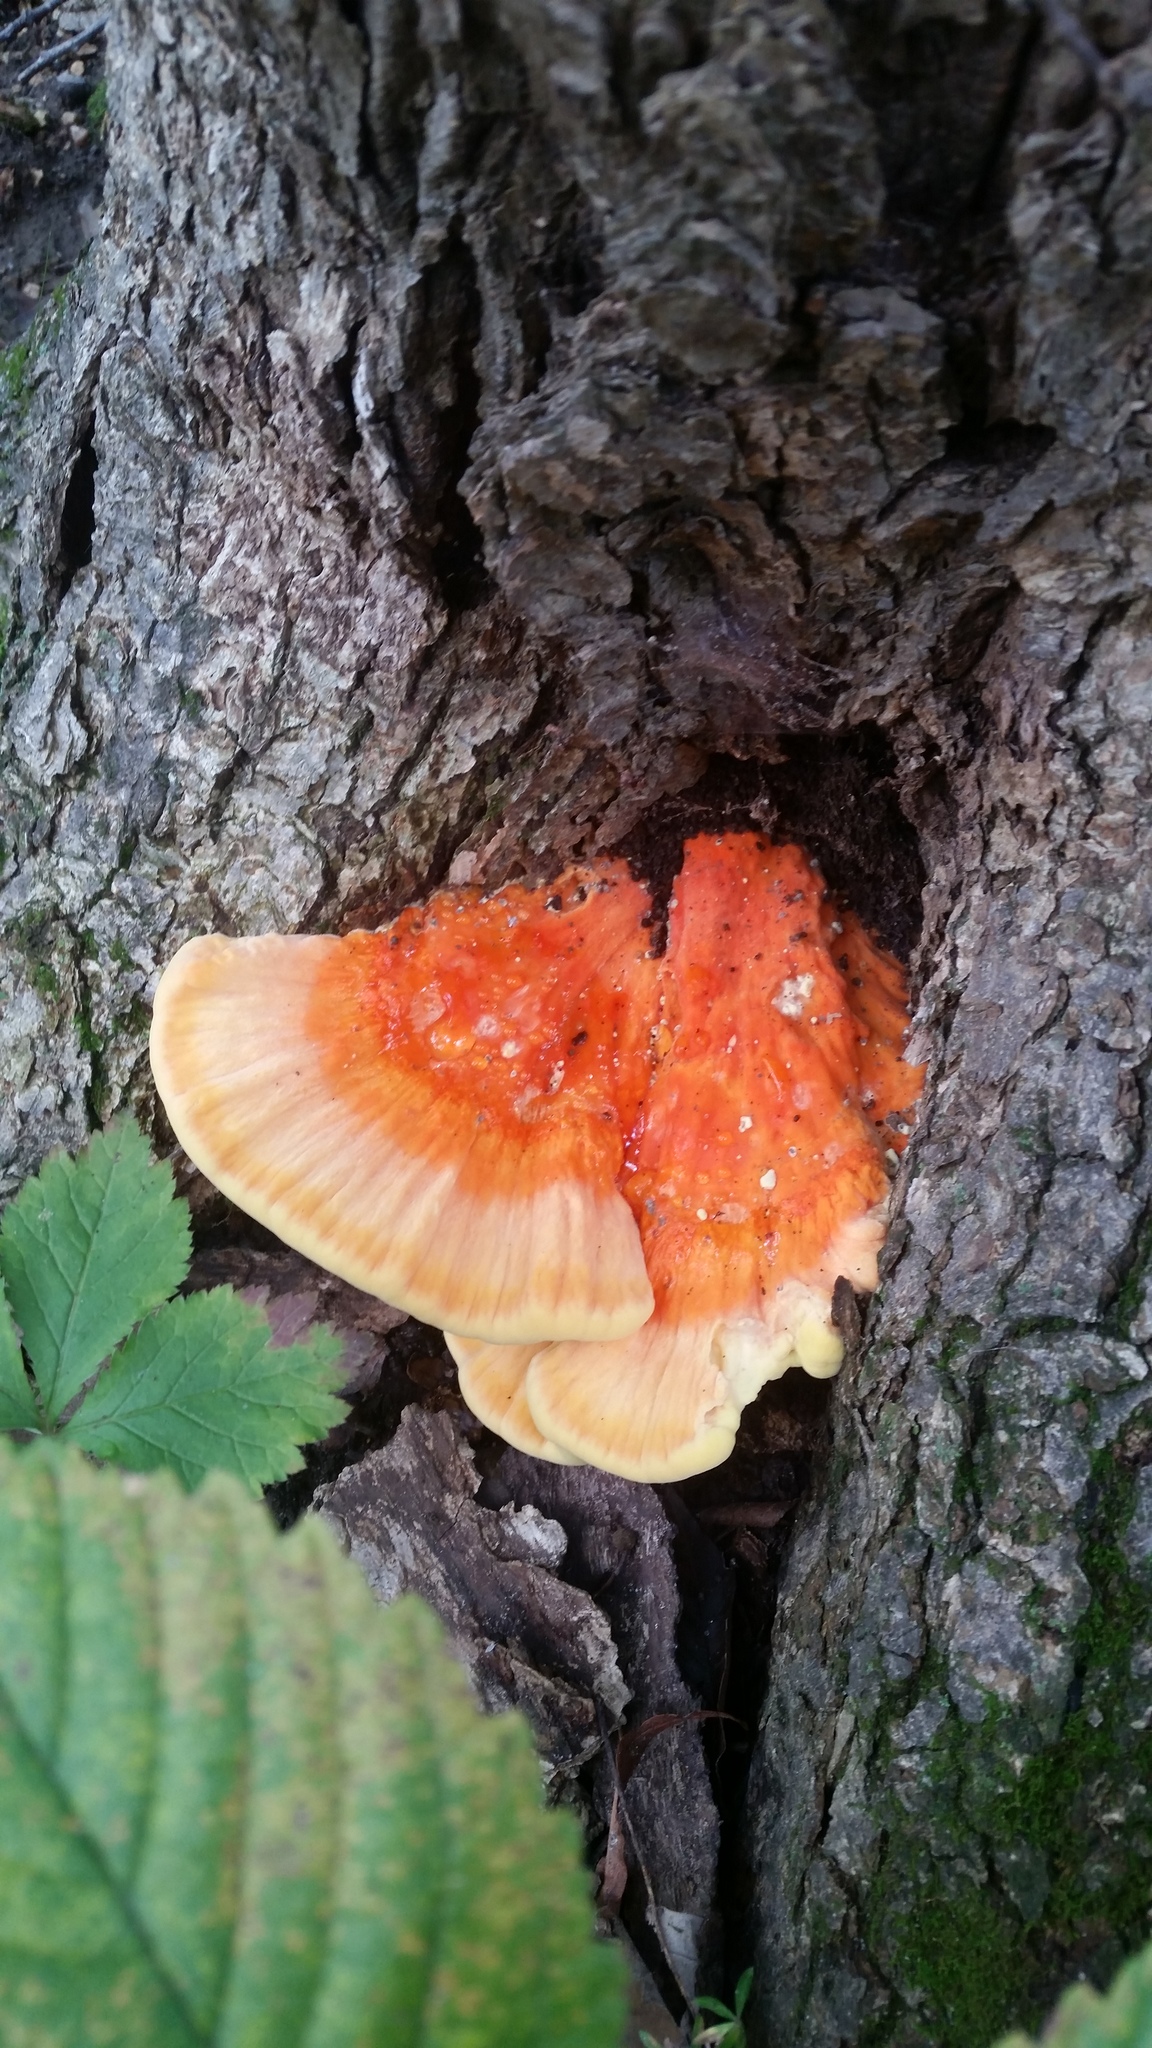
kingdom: Fungi
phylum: Basidiomycota
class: Agaricomycetes
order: Polyporales
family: Laetiporaceae
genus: Laetiporus
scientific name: Laetiporus sulphureus
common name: Chicken of the woods
